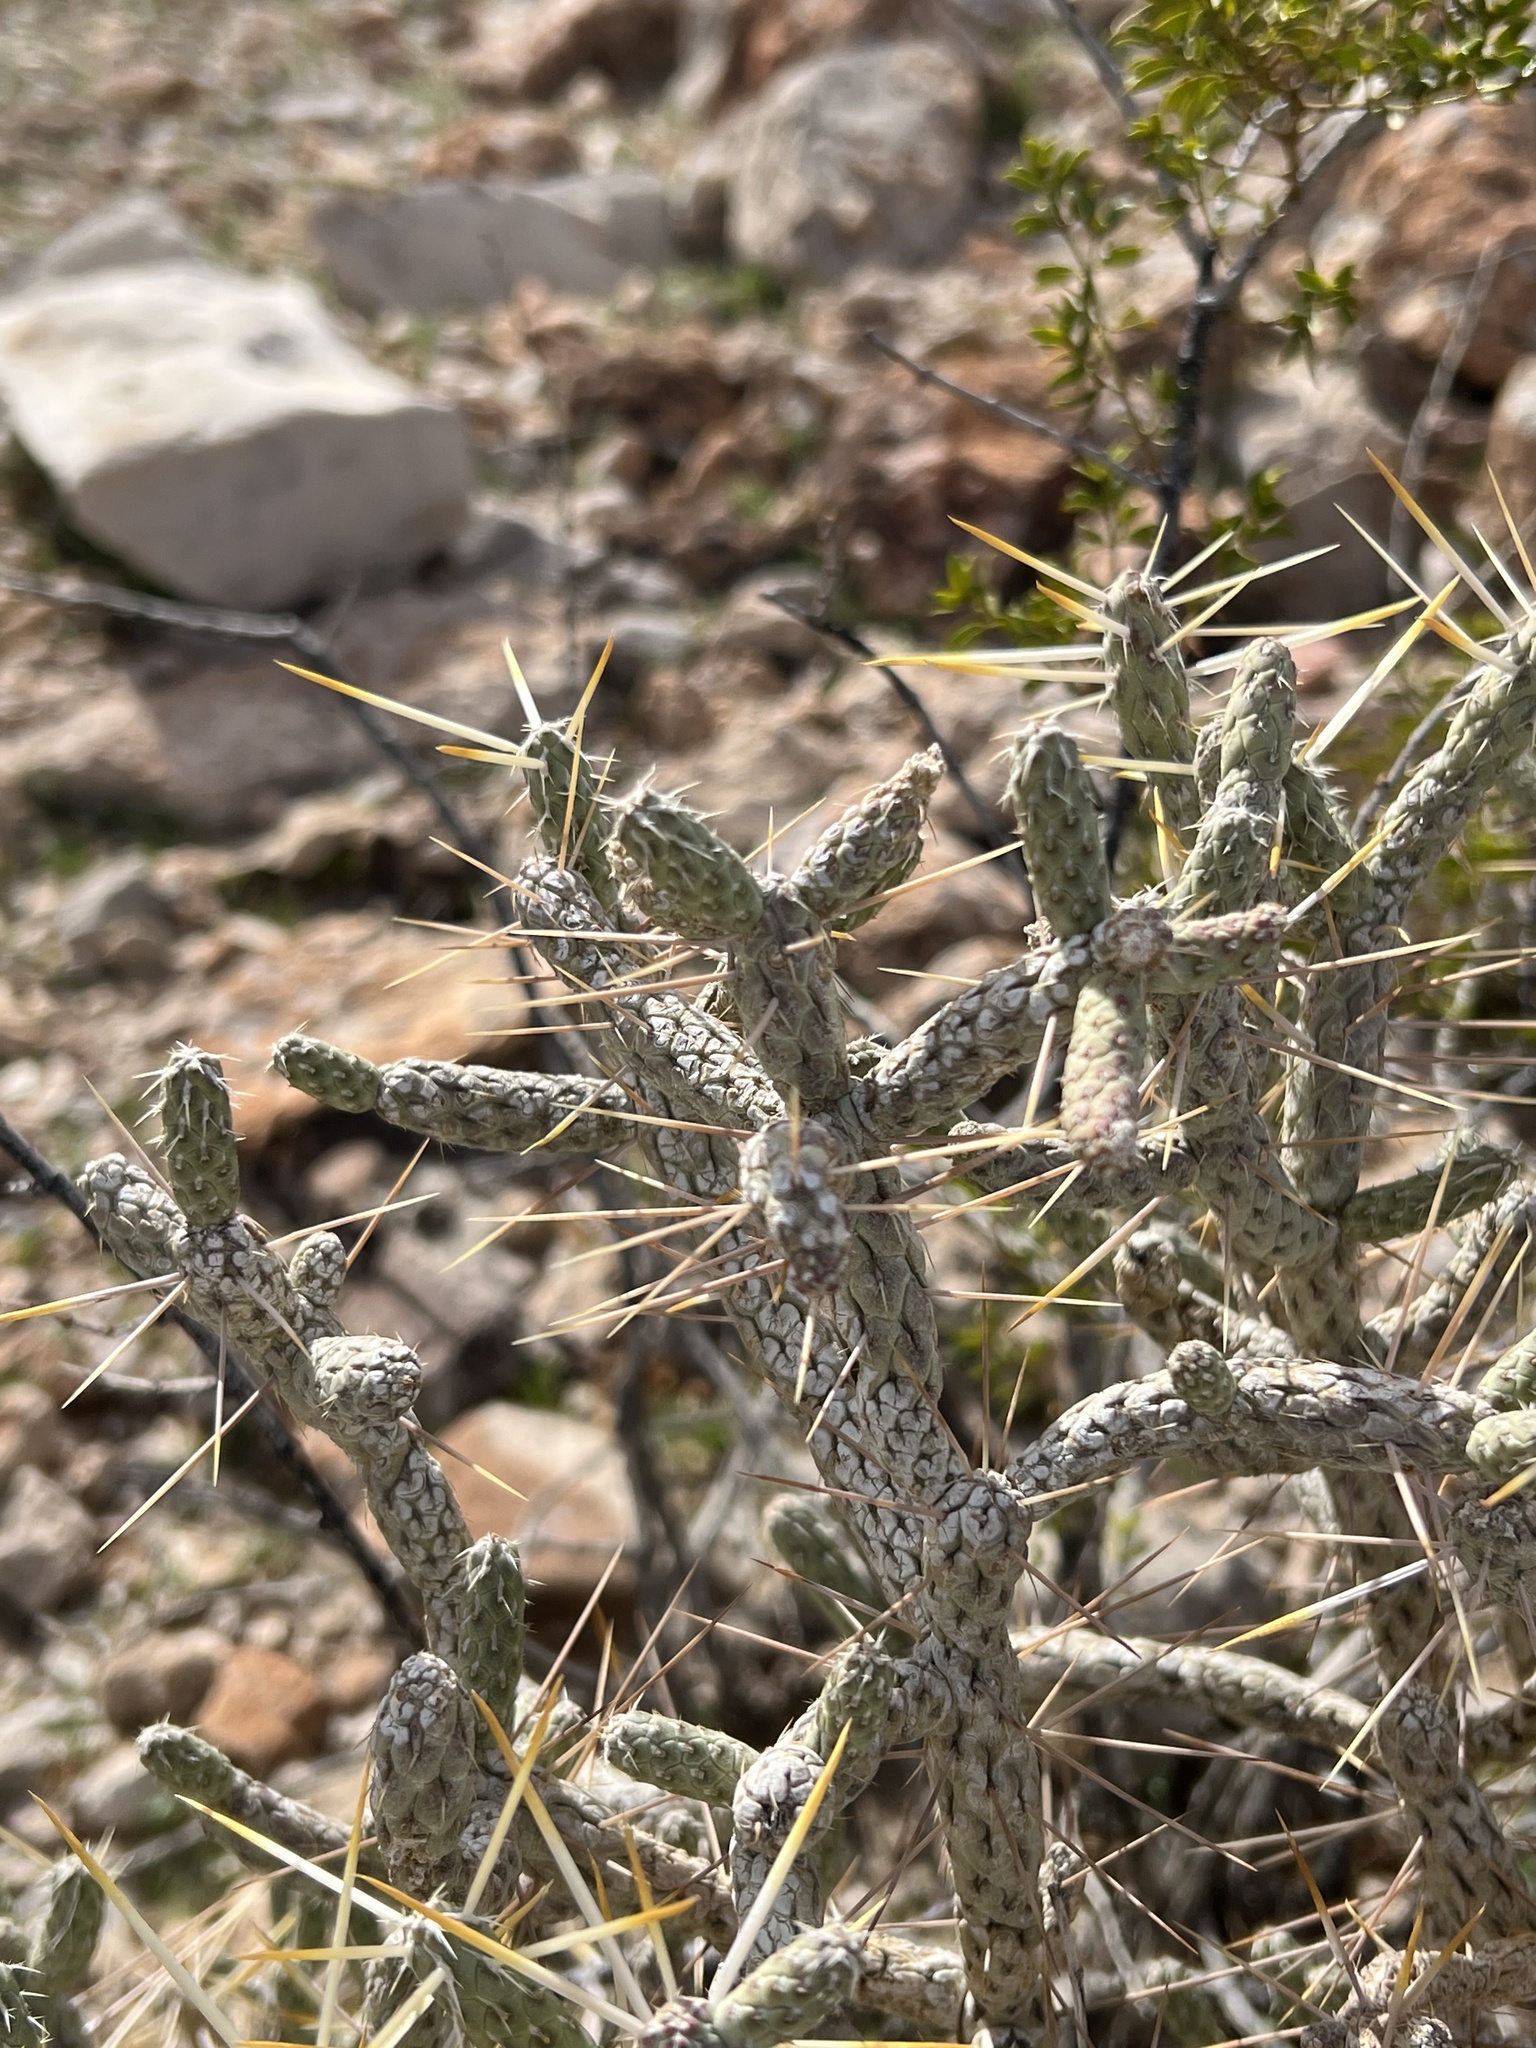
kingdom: Plantae
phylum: Tracheophyta
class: Magnoliopsida
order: Caryophyllales
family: Cactaceae
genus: Cylindropuntia
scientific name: Cylindropuntia ramosissima
